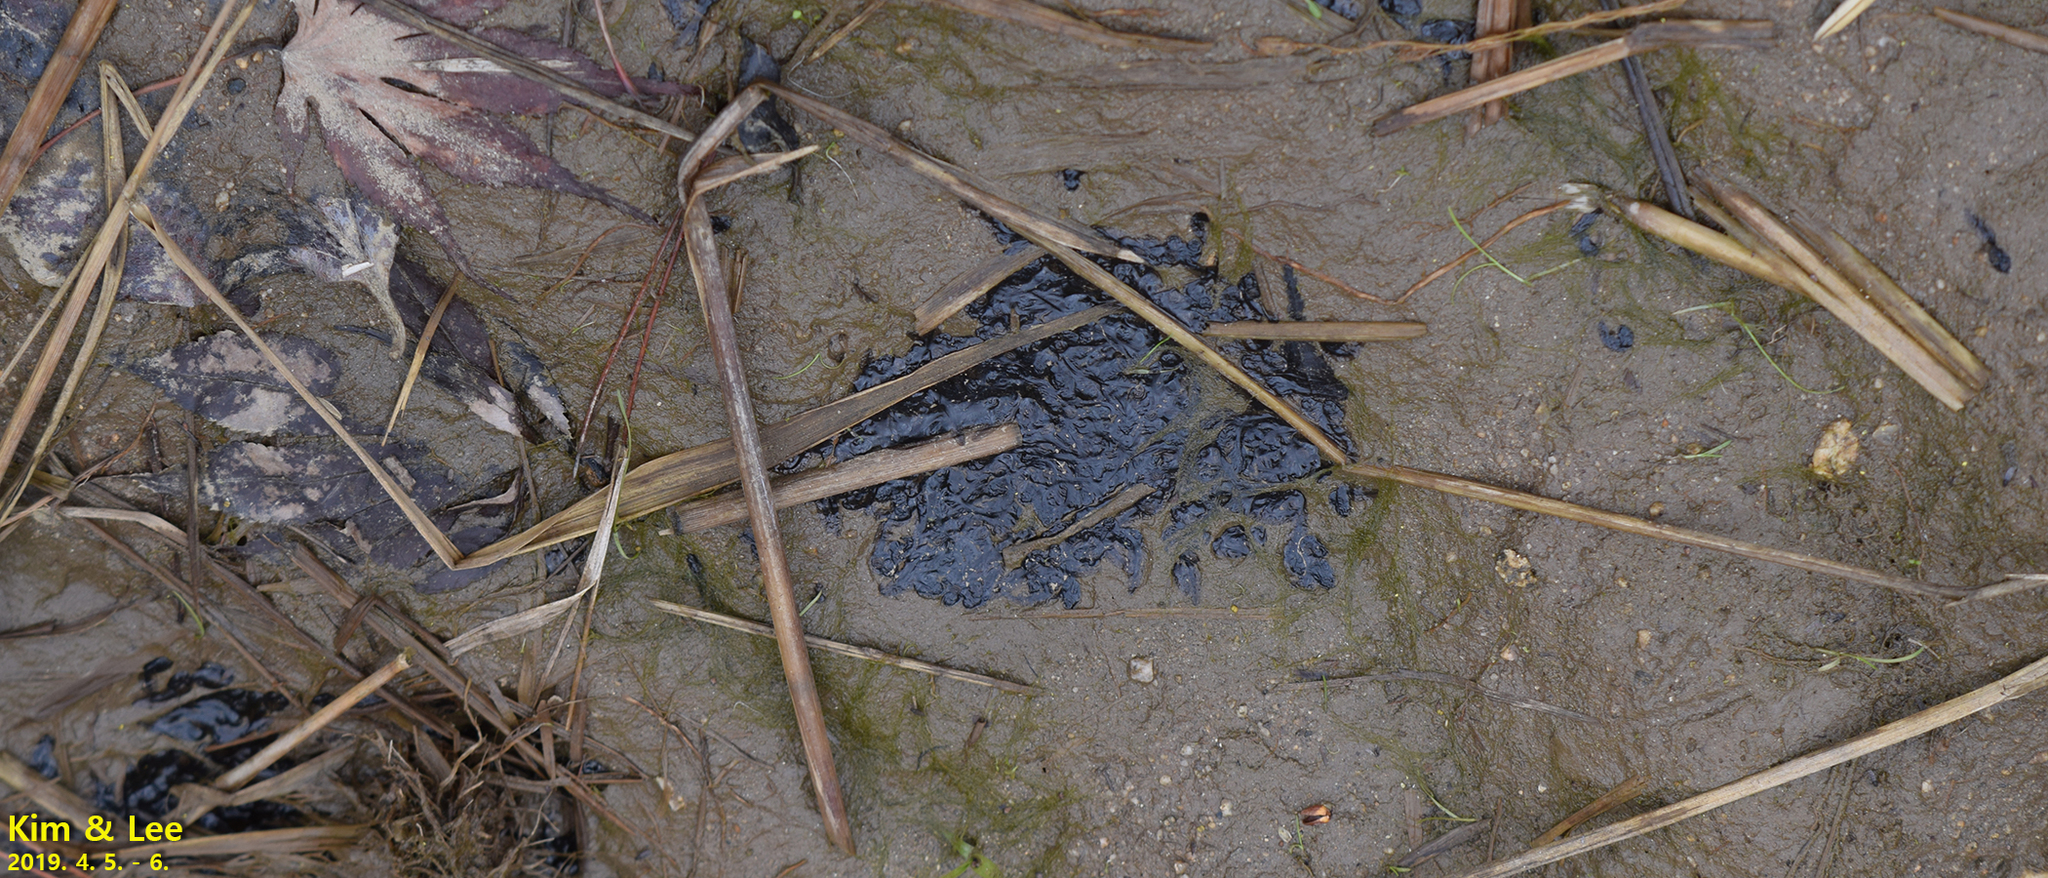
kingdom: Animalia
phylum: Chordata
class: Amphibia
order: Anura
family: Ranidae
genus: Rana
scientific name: Rana uenoi
